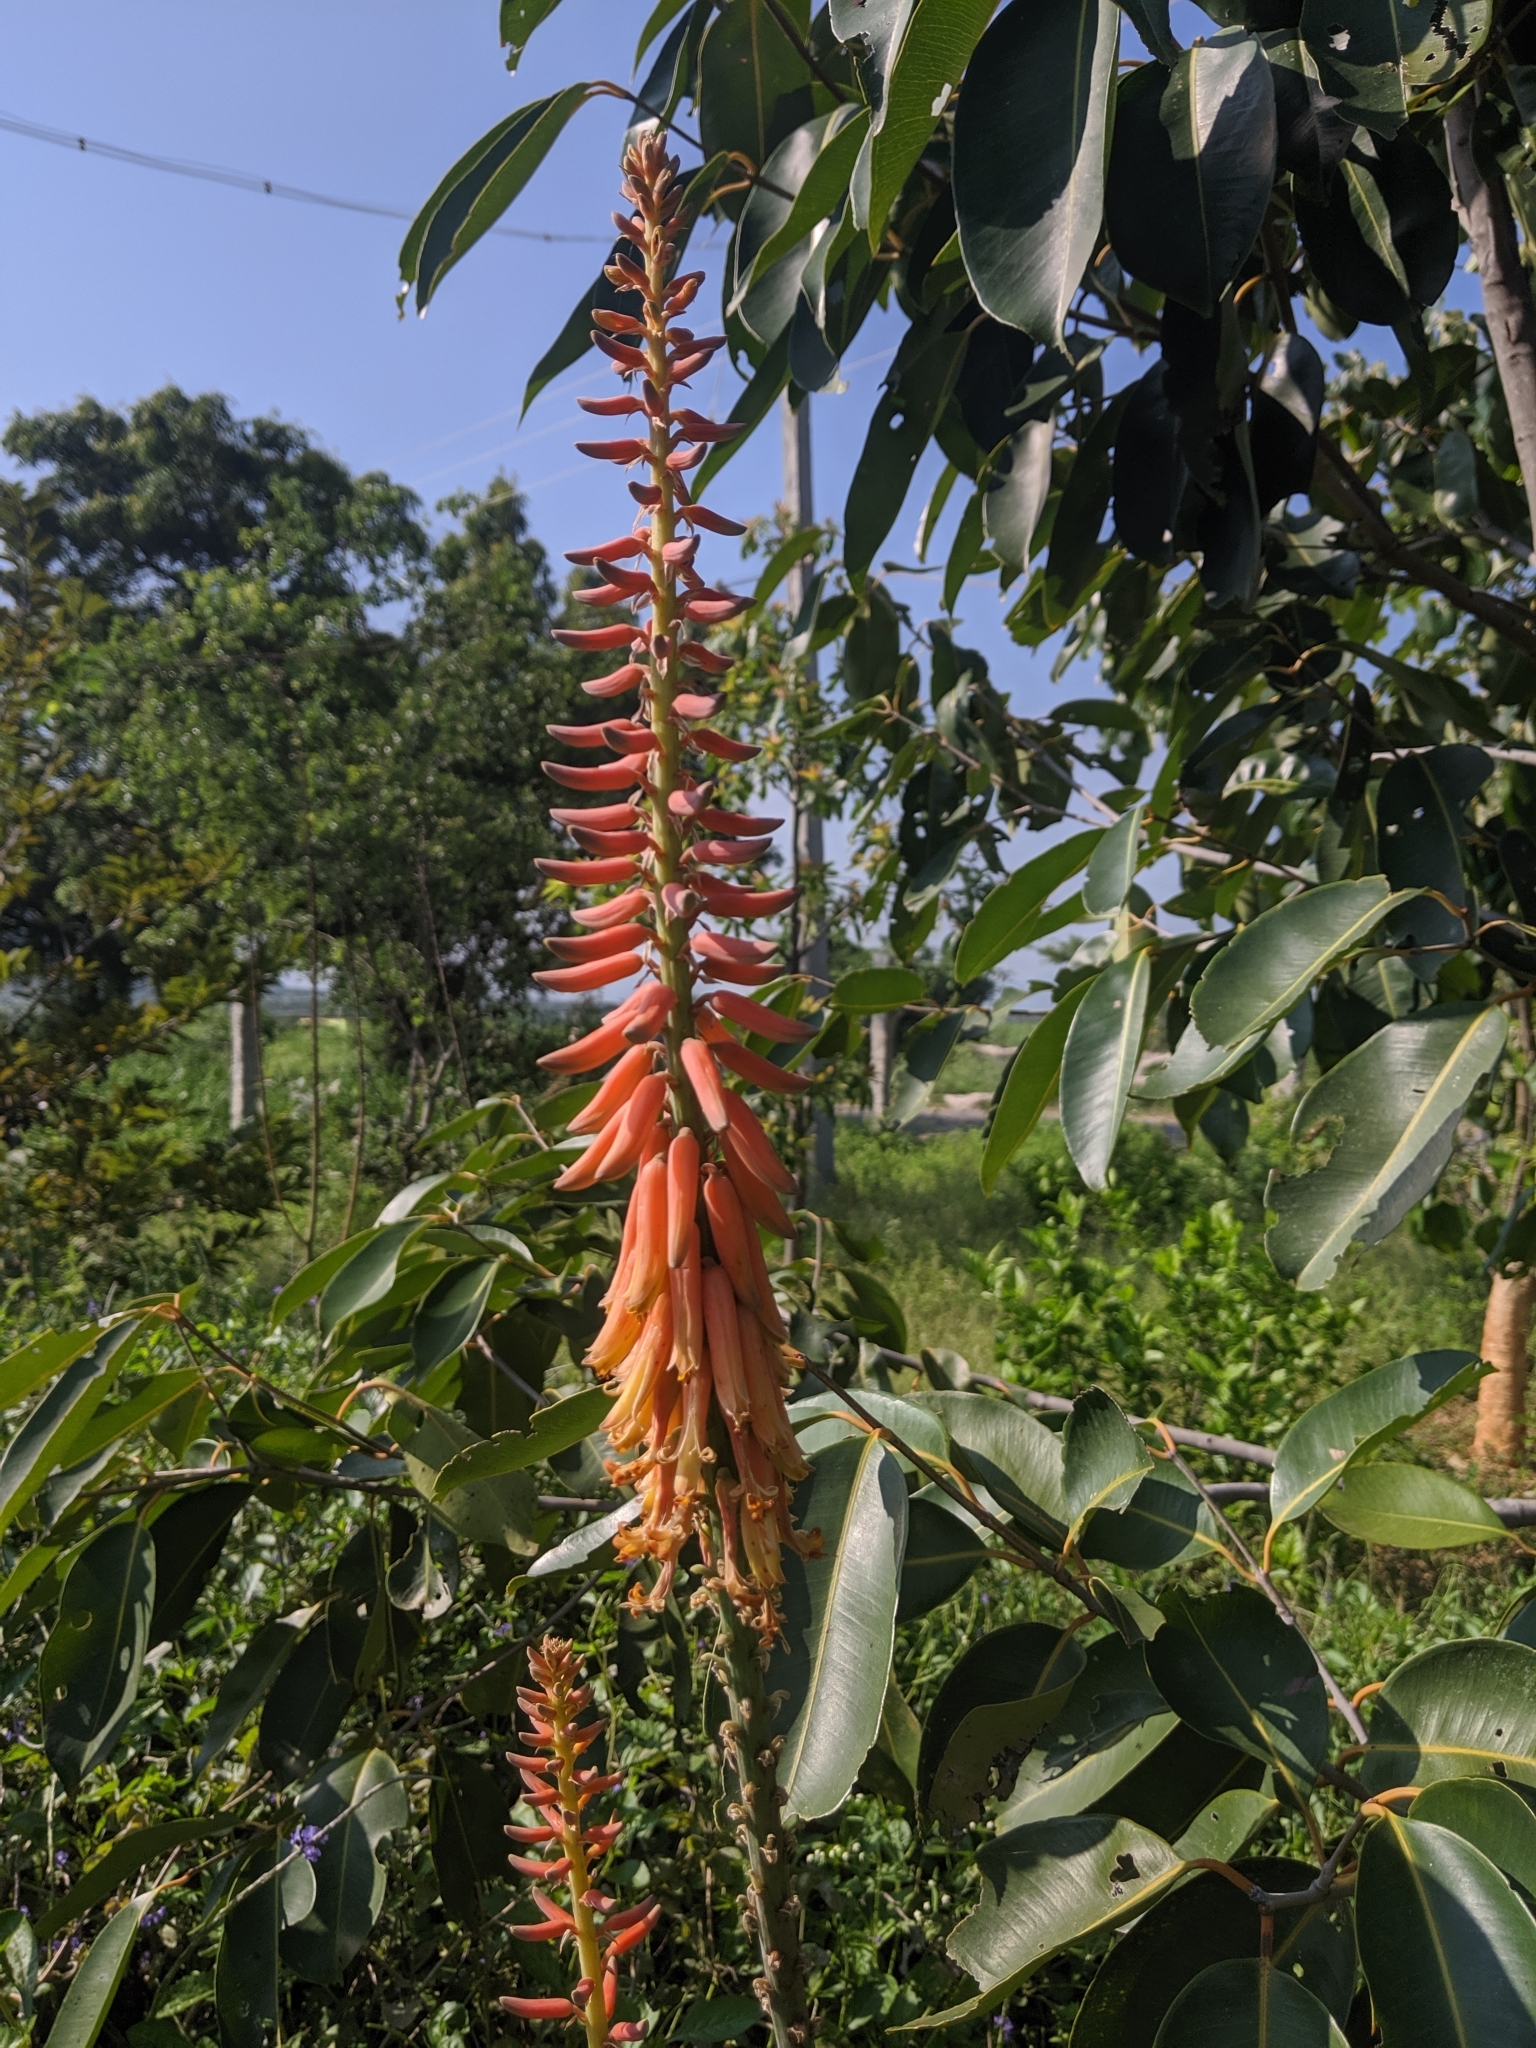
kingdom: Plantae
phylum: Tracheophyta
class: Liliopsida
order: Asparagales
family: Asphodelaceae
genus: Aloe
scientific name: Aloe vera
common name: Barbados aloe
